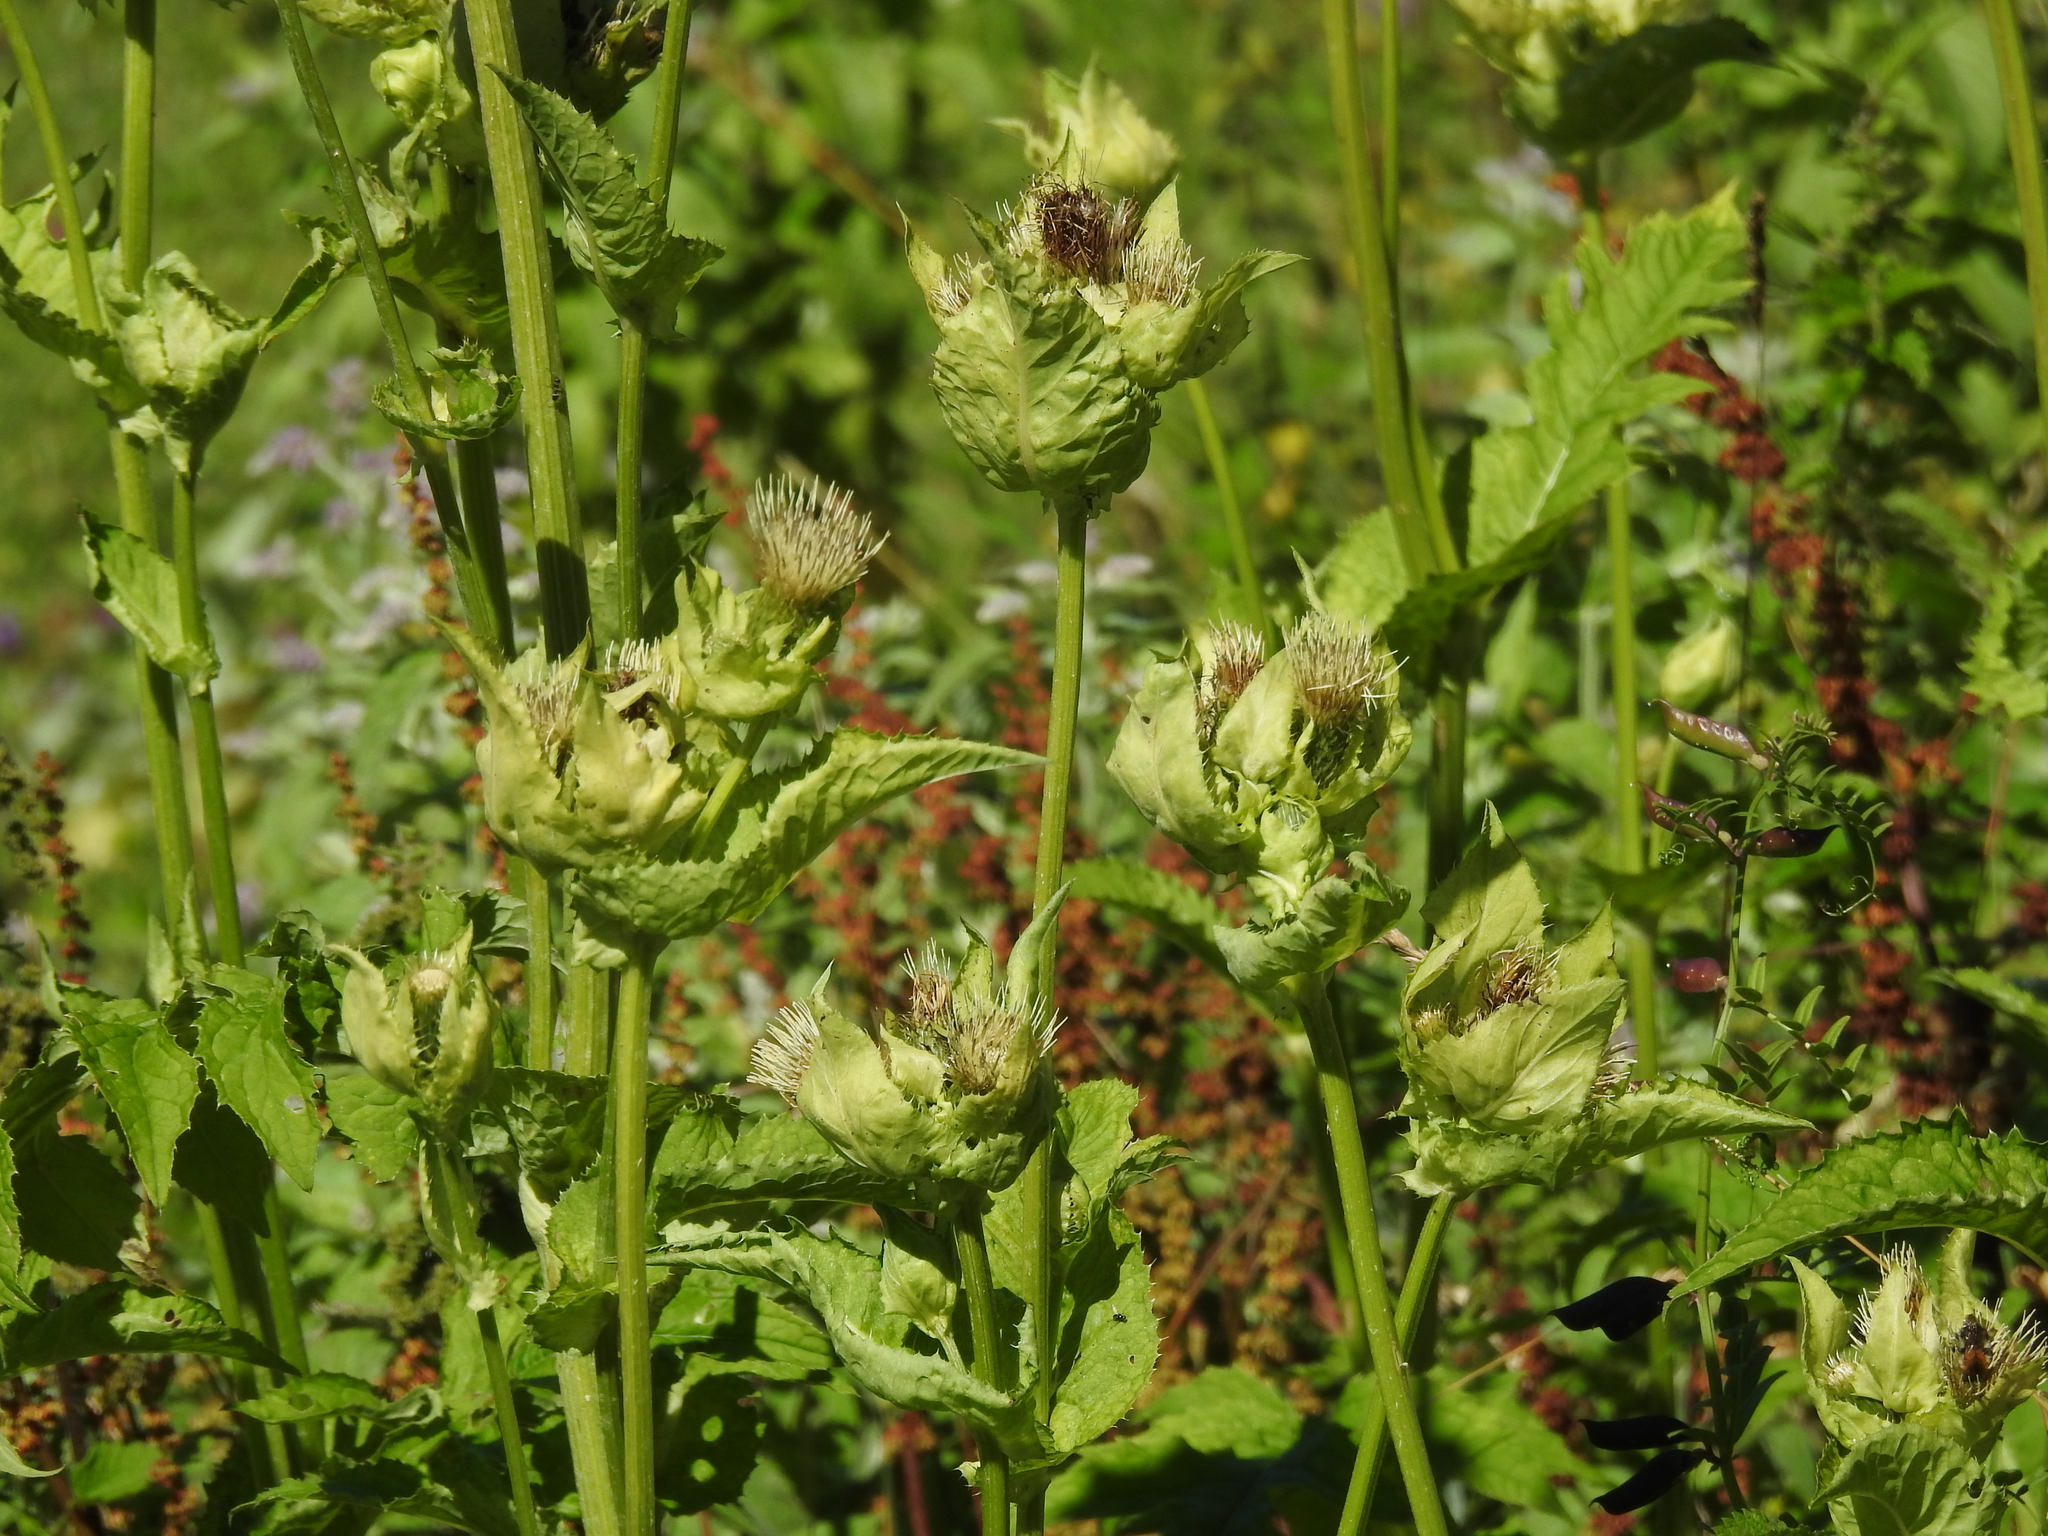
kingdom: Plantae
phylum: Tracheophyta
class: Magnoliopsida
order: Asterales
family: Asteraceae
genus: Cirsium
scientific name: Cirsium oleraceum
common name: Cabbage thistle
